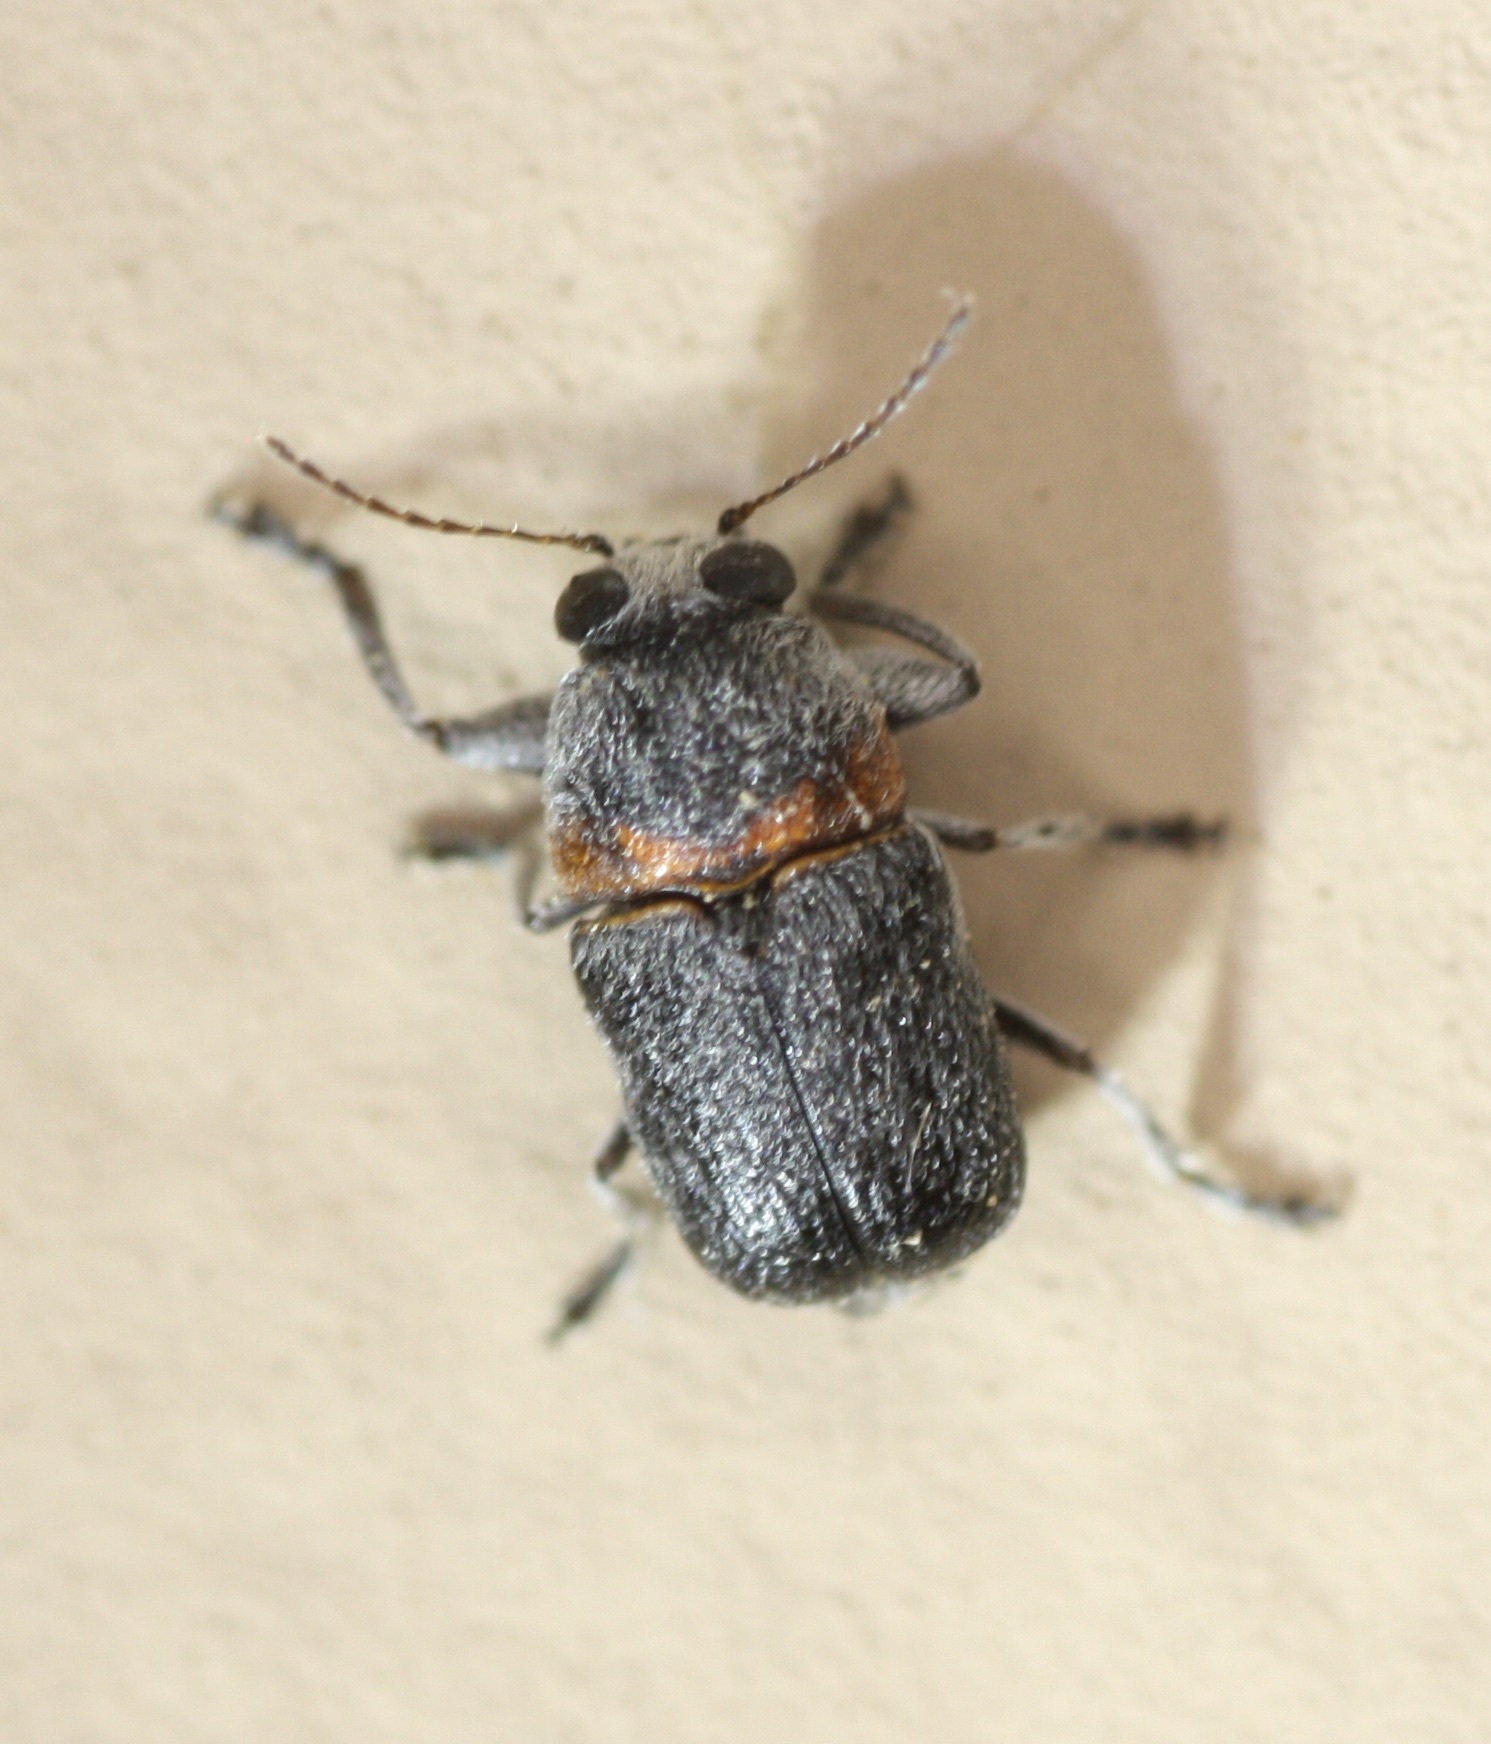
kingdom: Animalia
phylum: Arthropoda
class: Insecta
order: Coleoptera
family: Chrysomelidae
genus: Pachybrachis
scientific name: Pachybrachis thoracicus
